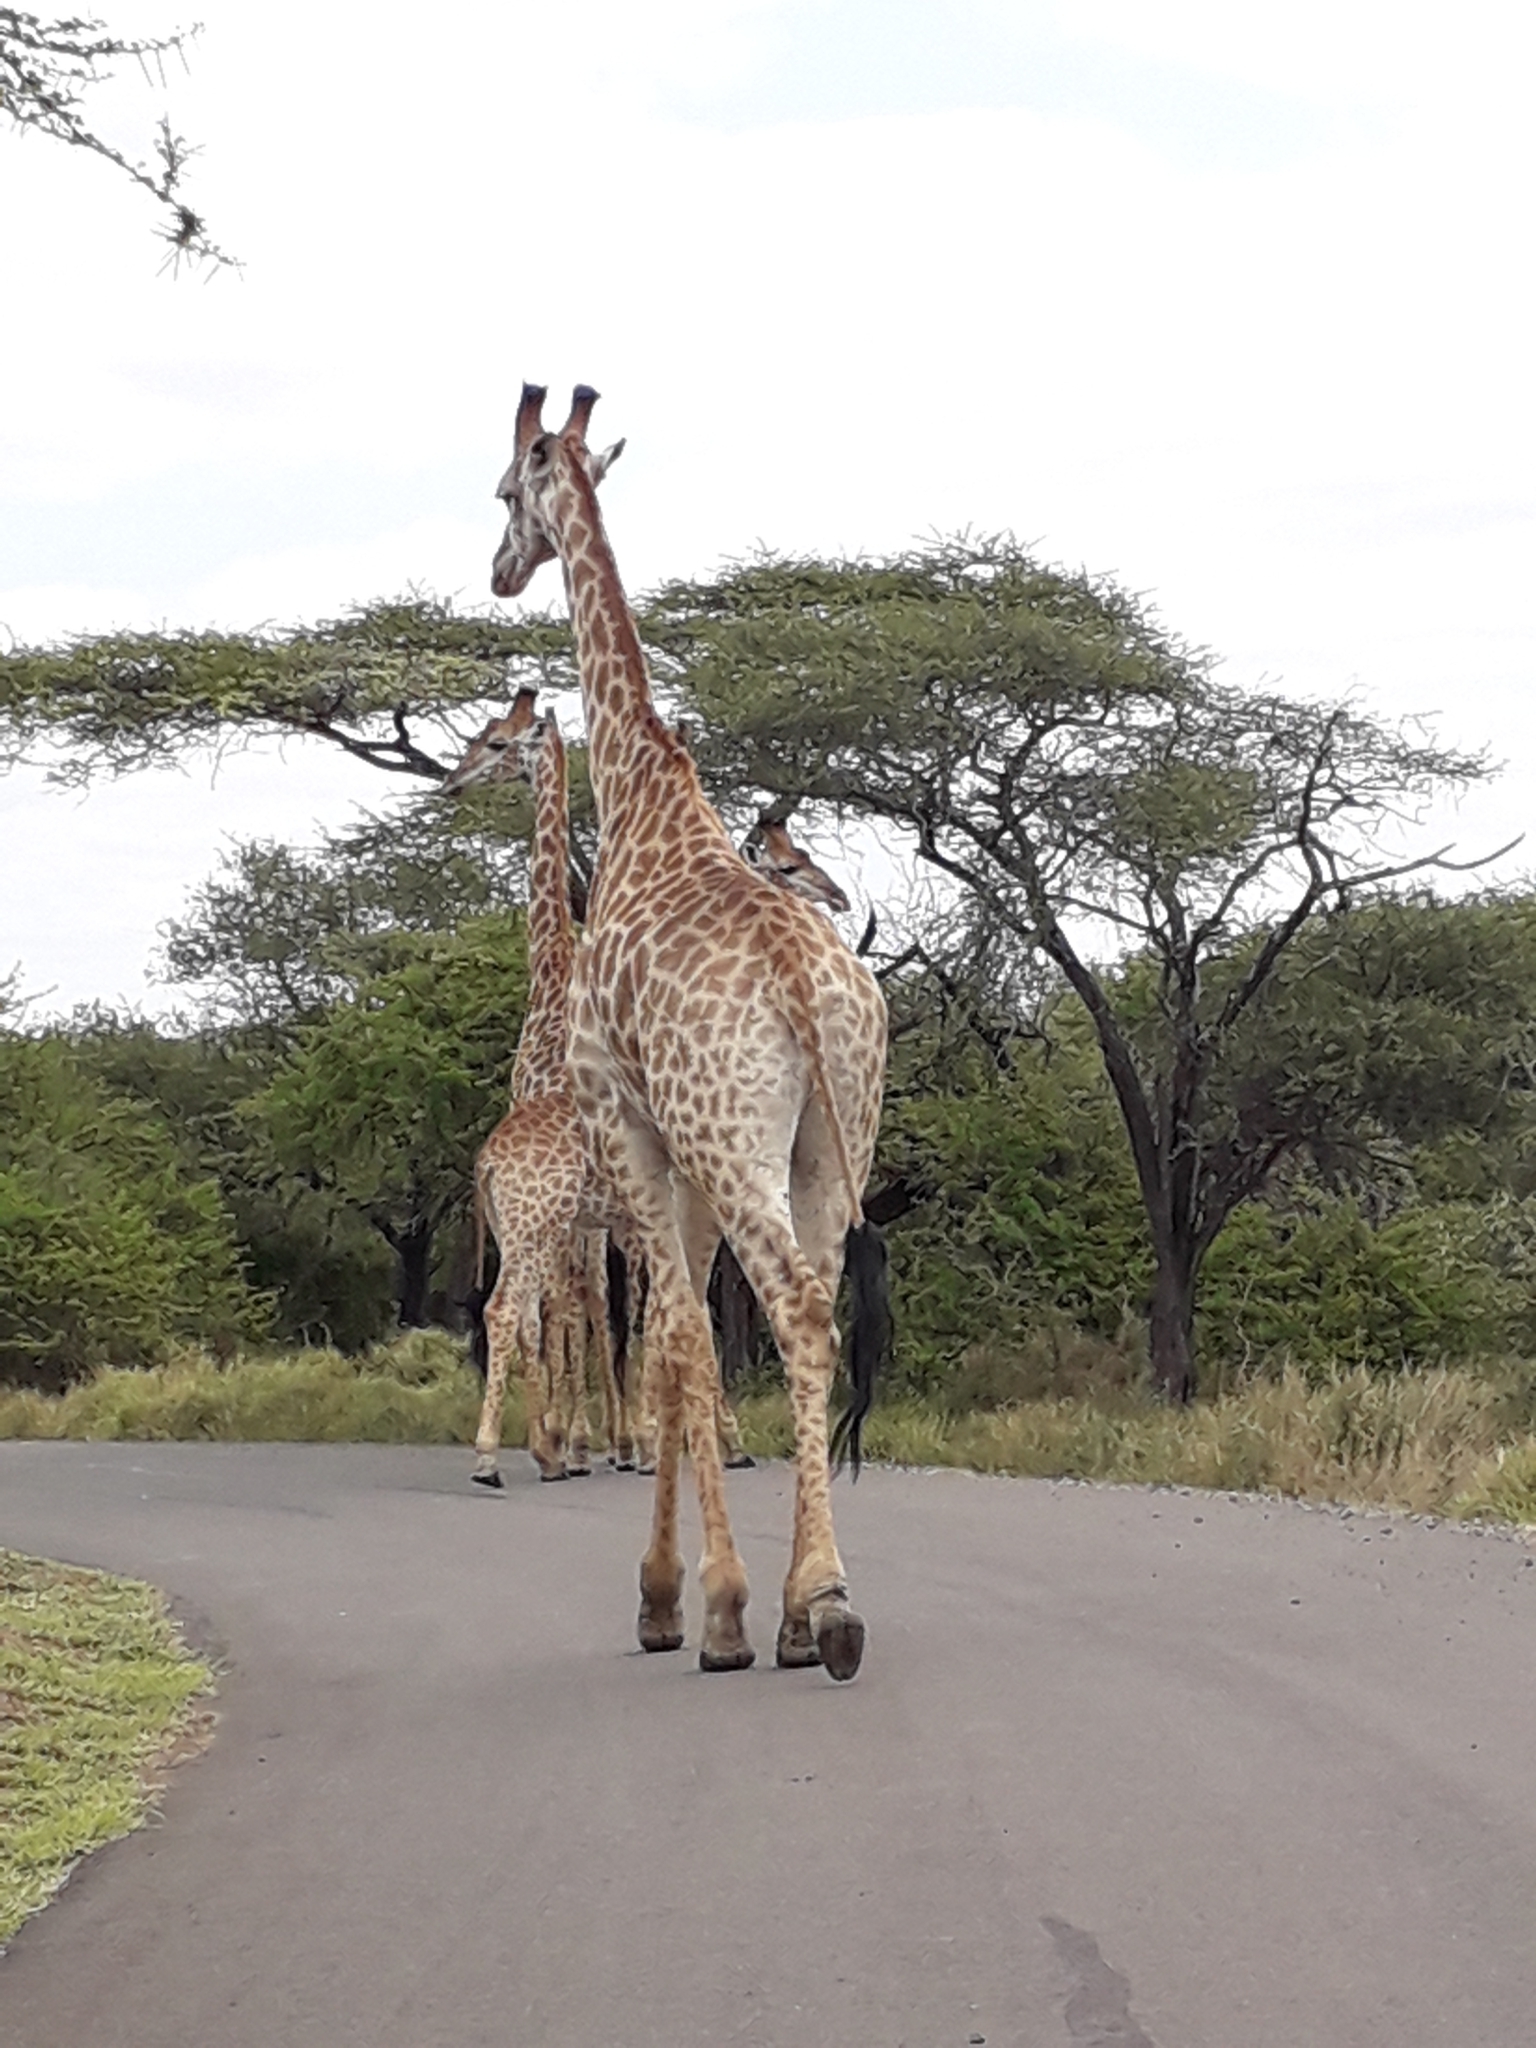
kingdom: Animalia
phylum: Chordata
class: Mammalia
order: Artiodactyla
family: Giraffidae
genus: Giraffa
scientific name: Giraffa giraffa
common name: Southern giraffe
